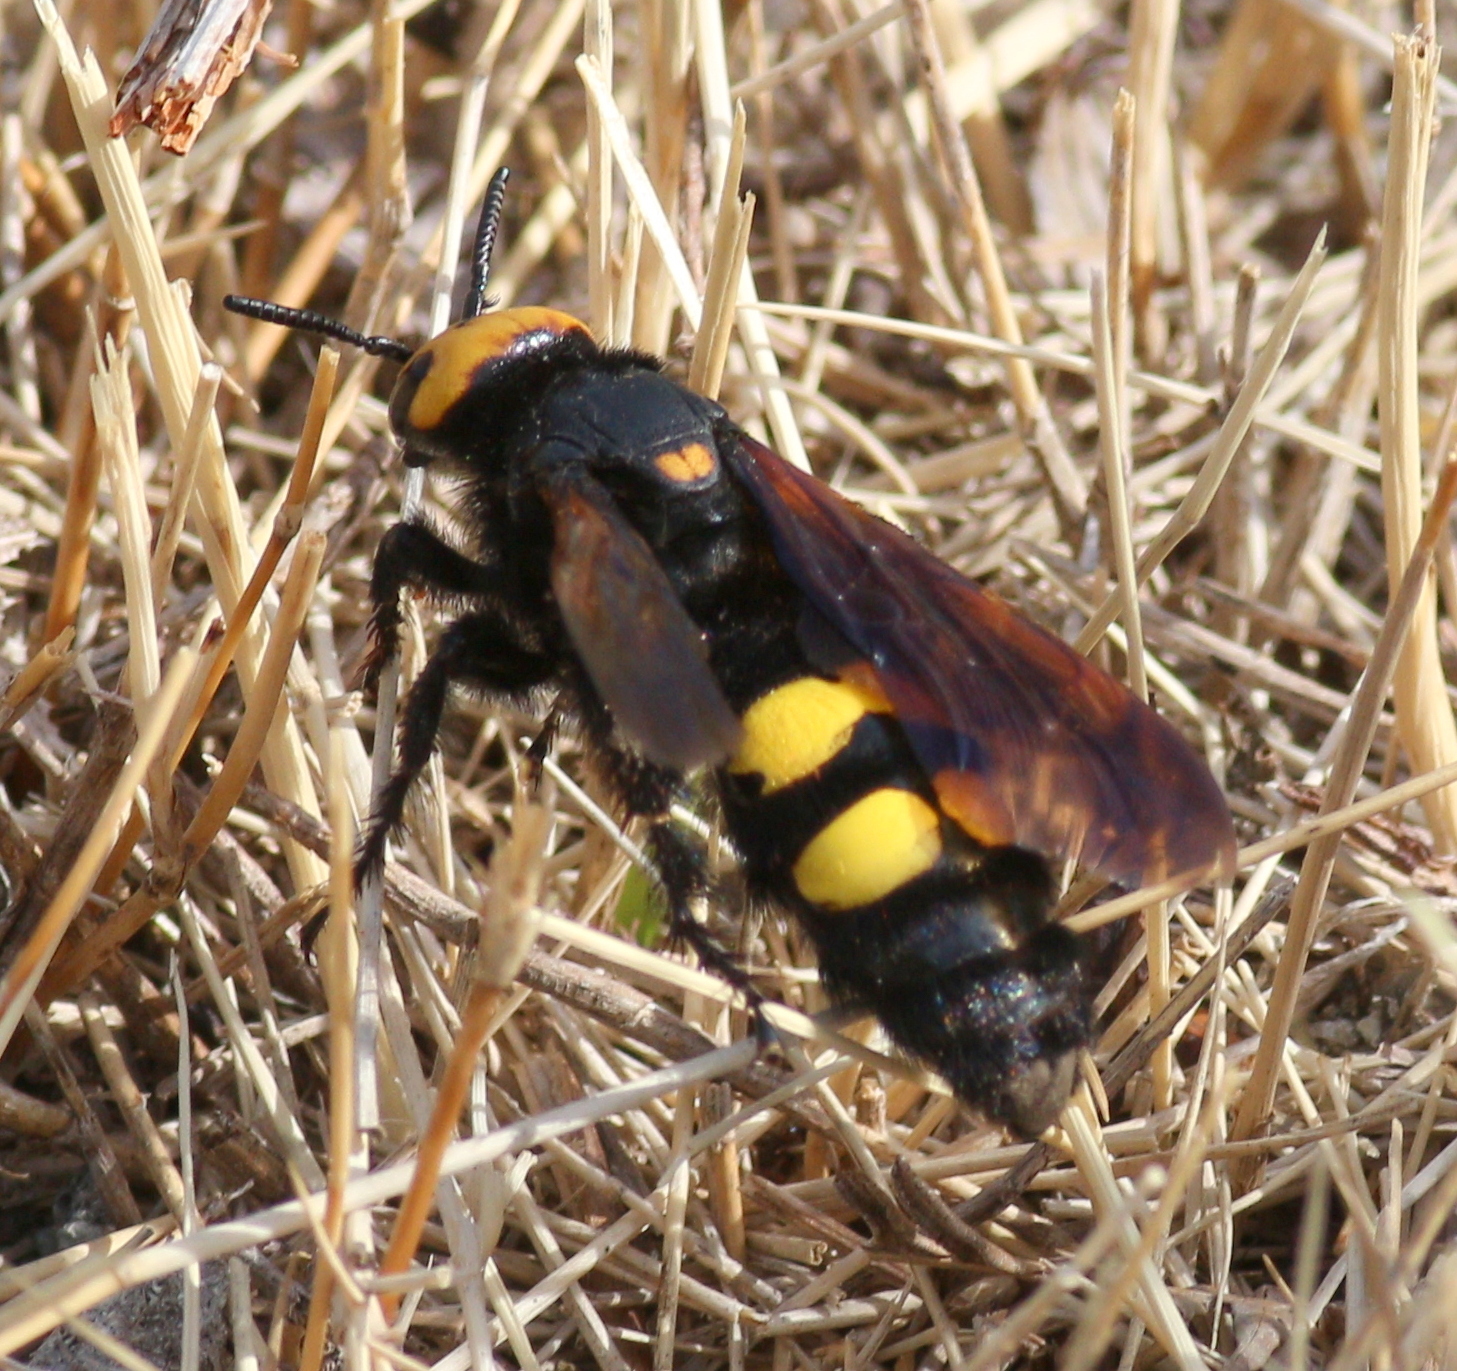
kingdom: Animalia
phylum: Arthropoda
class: Insecta
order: Hymenoptera
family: Scoliidae
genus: Megascolia
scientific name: Megascolia maculata
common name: Mammoth wasp
